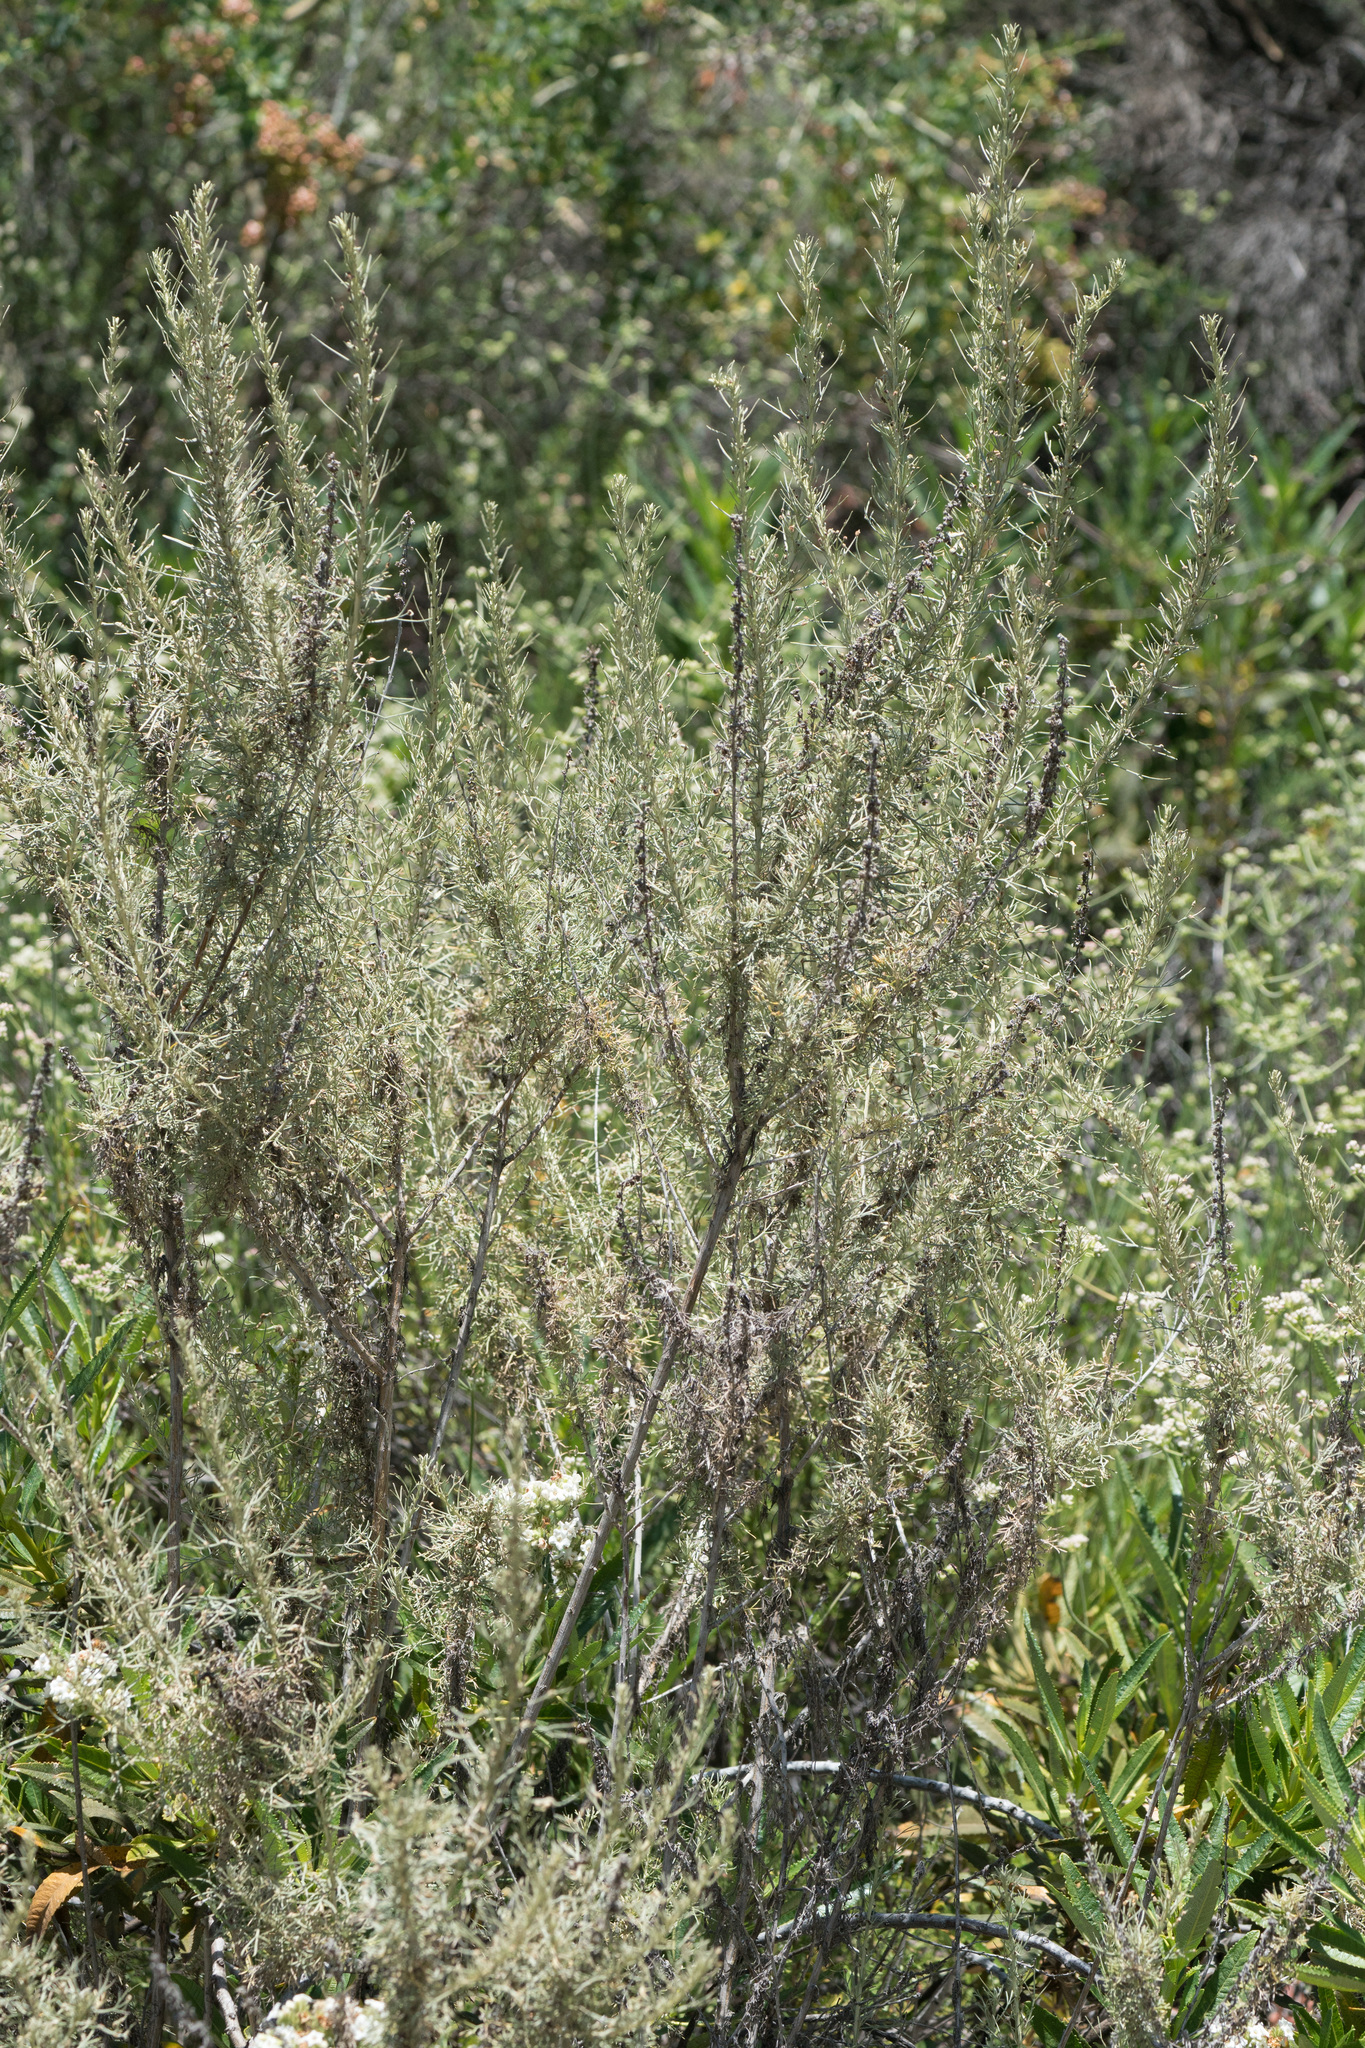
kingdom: Plantae
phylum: Tracheophyta
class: Magnoliopsida
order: Asterales
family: Asteraceae
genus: Artemisia
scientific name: Artemisia californica
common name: California sagebrush
